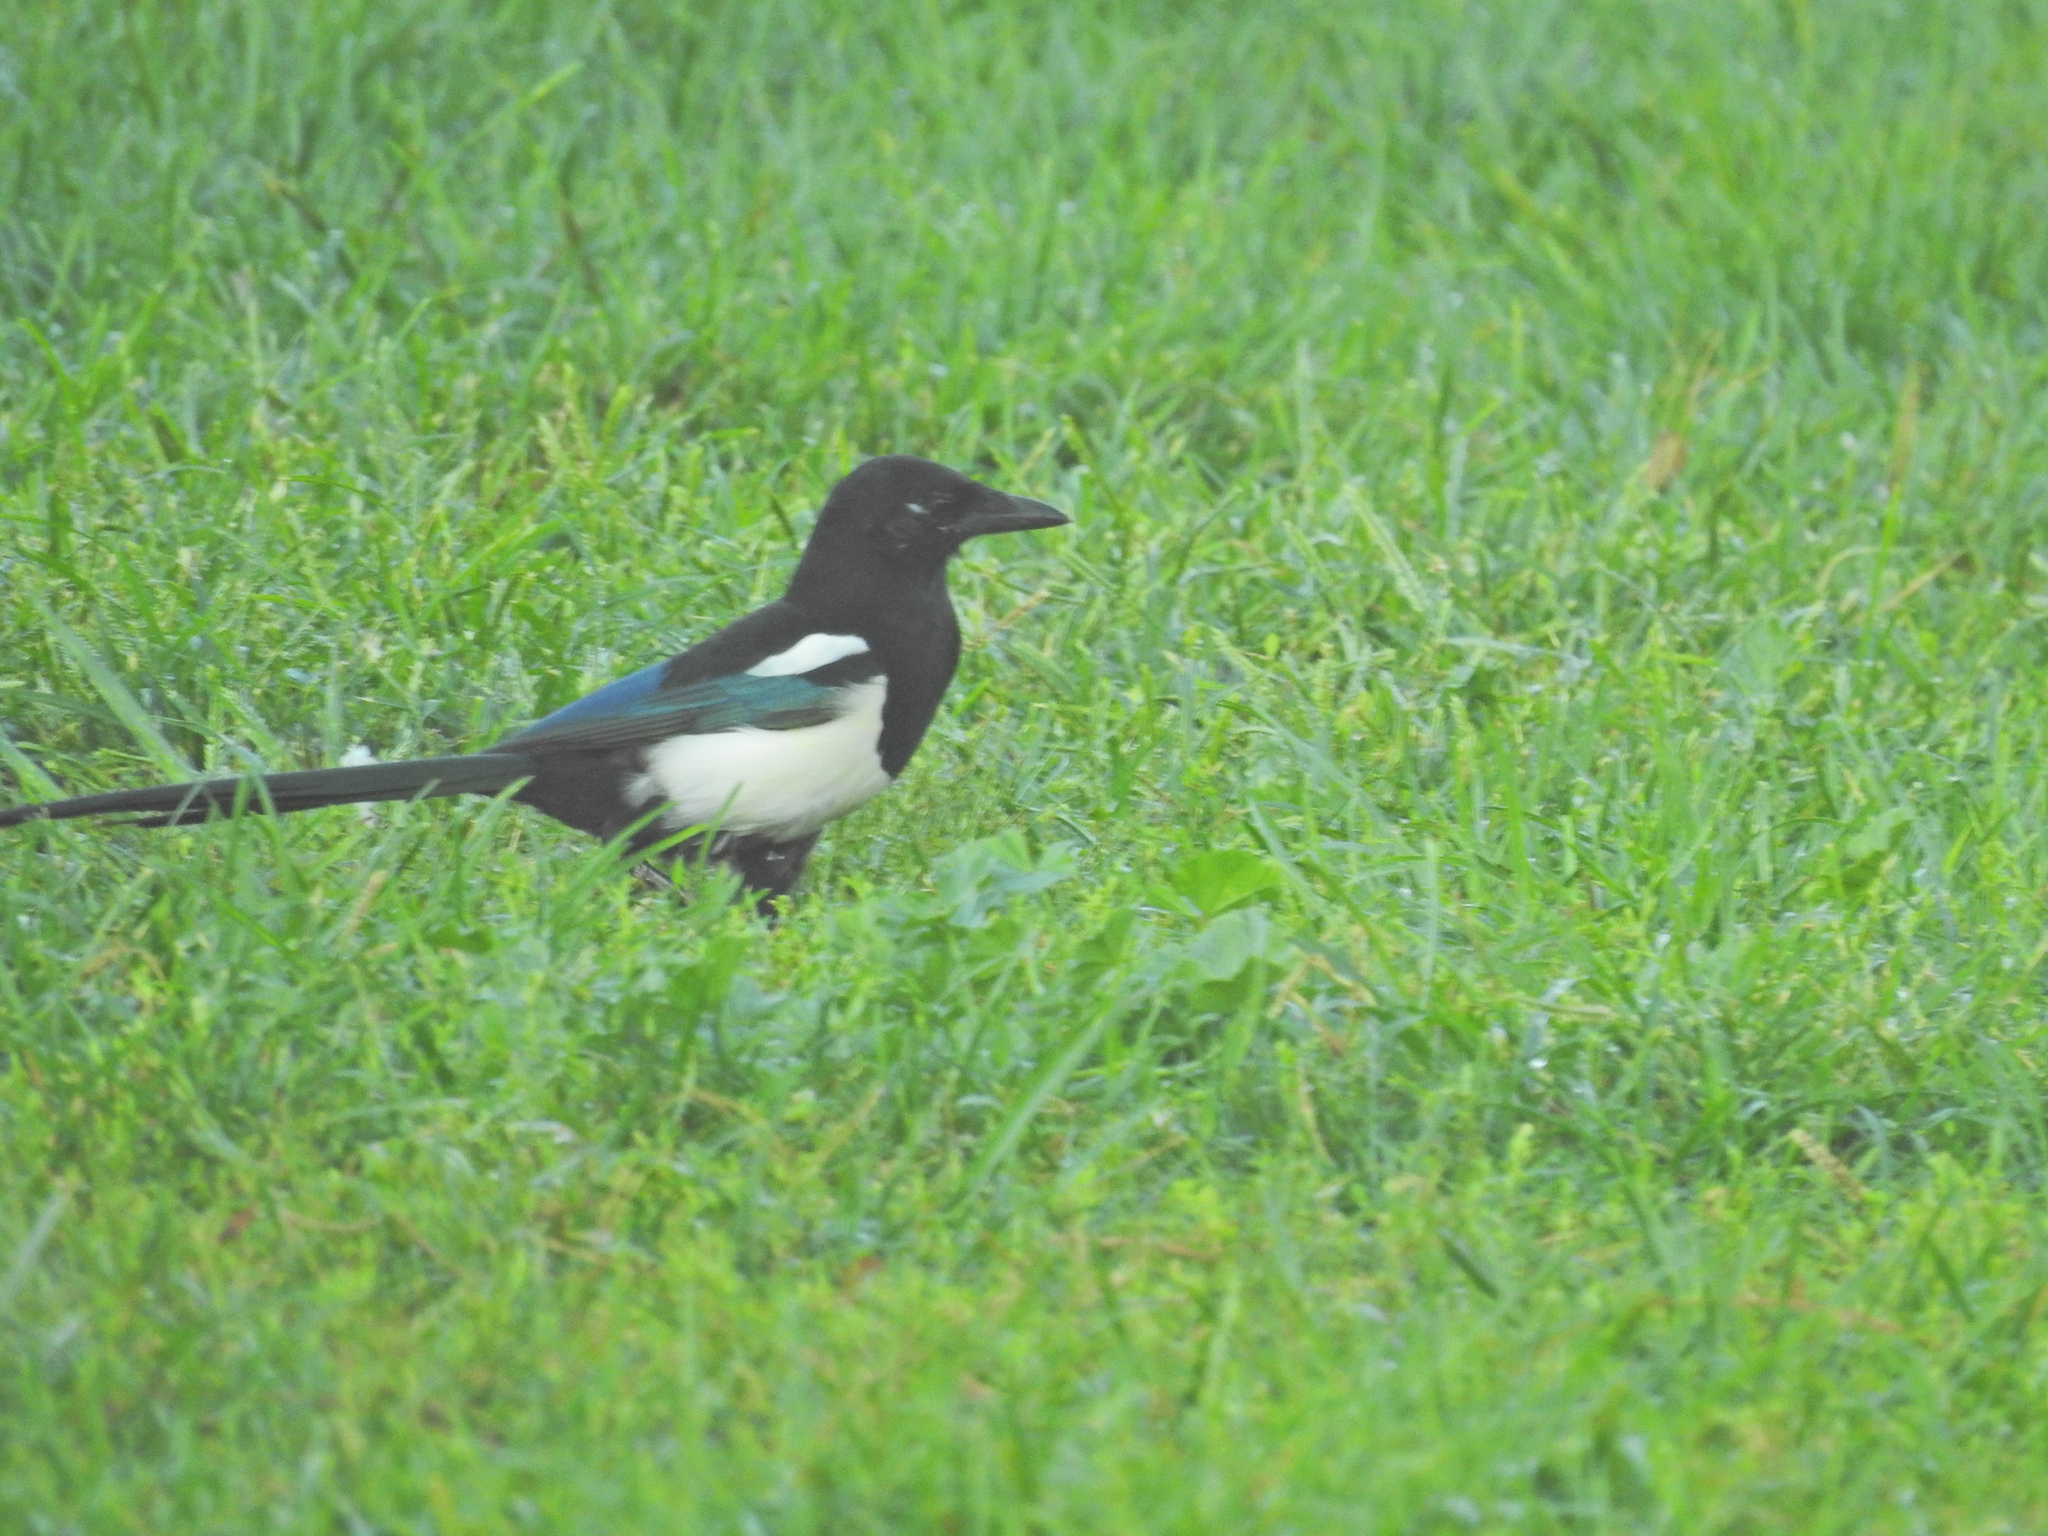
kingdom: Animalia
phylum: Chordata
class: Aves
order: Passeriformes
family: Corvidae
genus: Pica
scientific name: Pica pica
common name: Eurasian magpie
